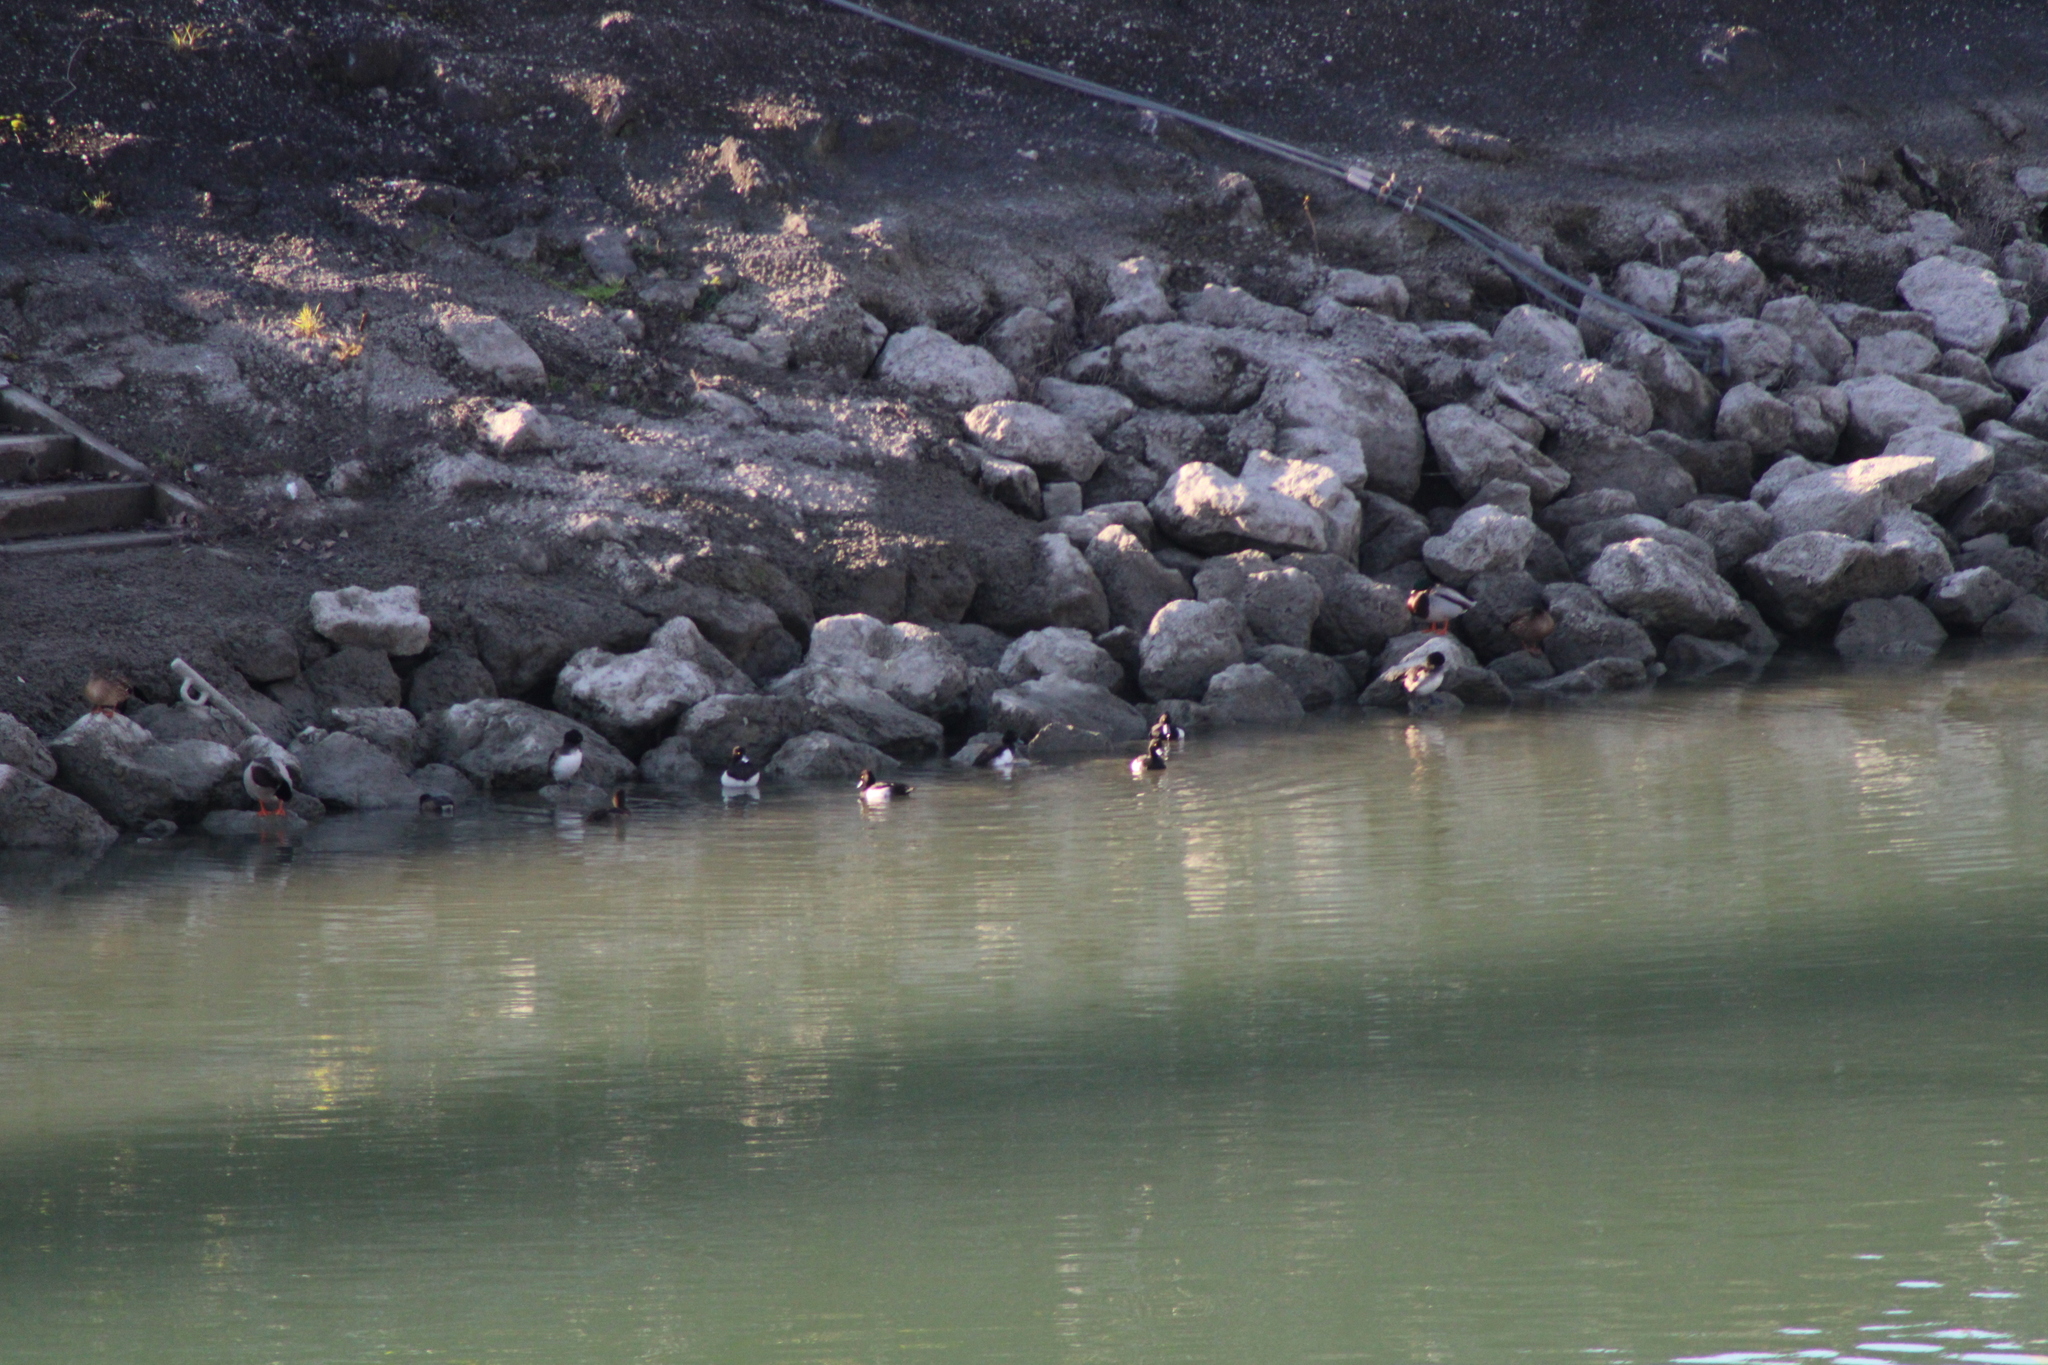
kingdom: Animalia
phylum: Chordata
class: Aves
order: Anseriformes
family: Anatidae
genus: Aythya
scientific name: Aythya fuligula
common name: Tufted duck
